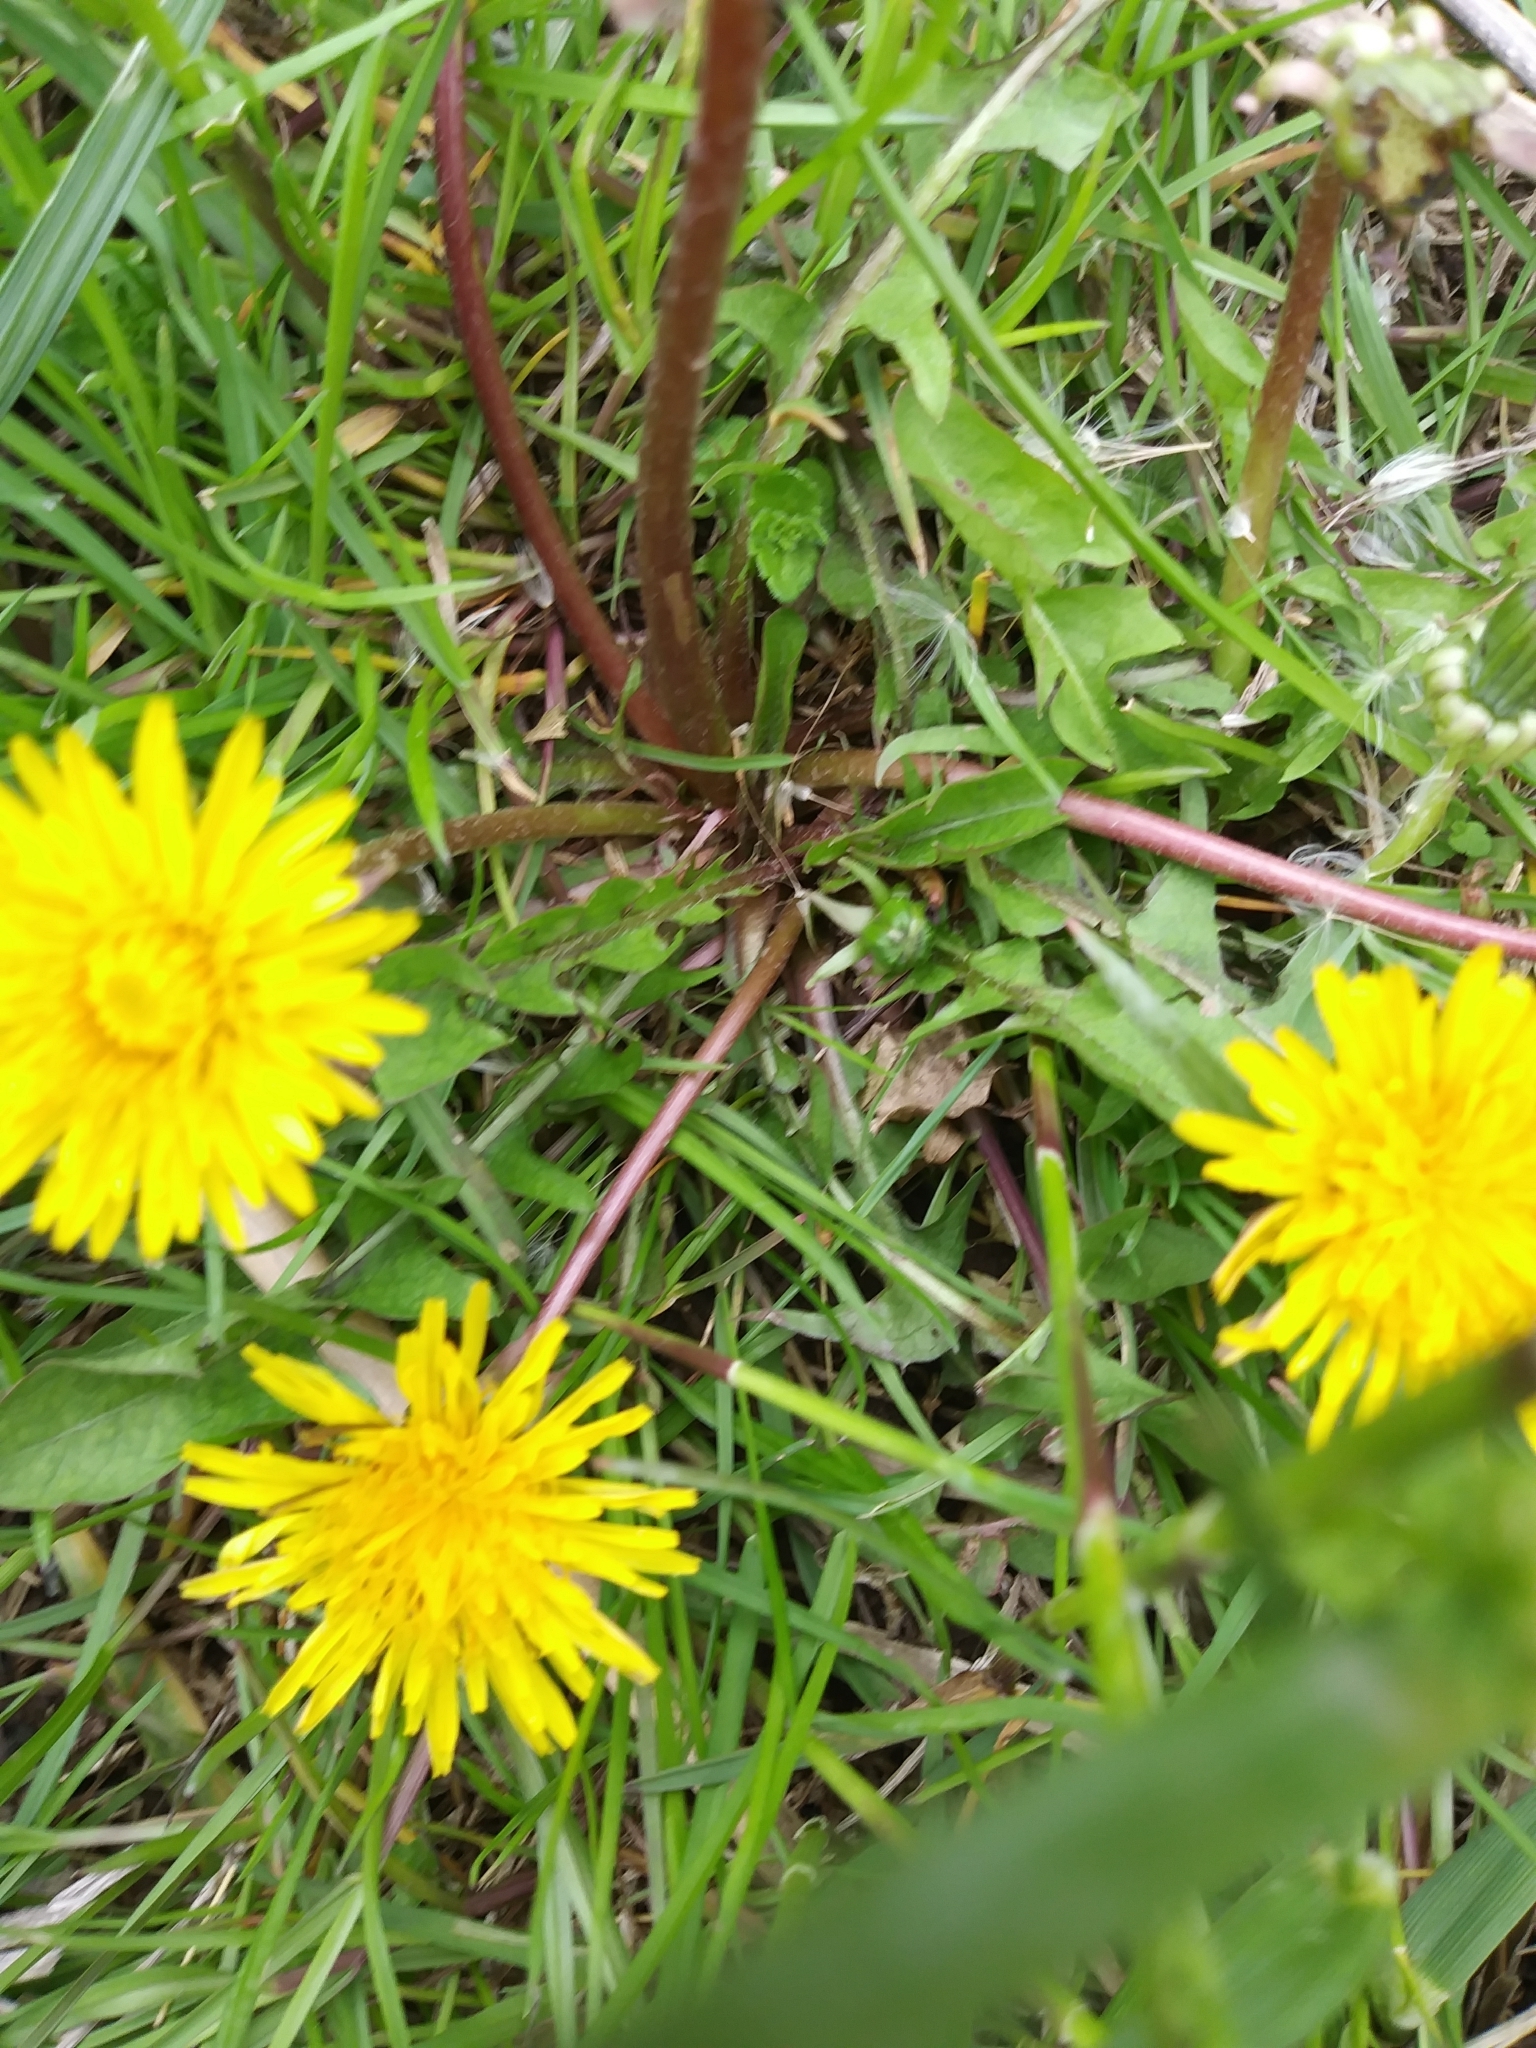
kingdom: Plantae
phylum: Tracheophyta
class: Magnoliopsida
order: Asterales
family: Asteraceae
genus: Taraxacum
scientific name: Taraxacum officinale
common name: Common dandelion
